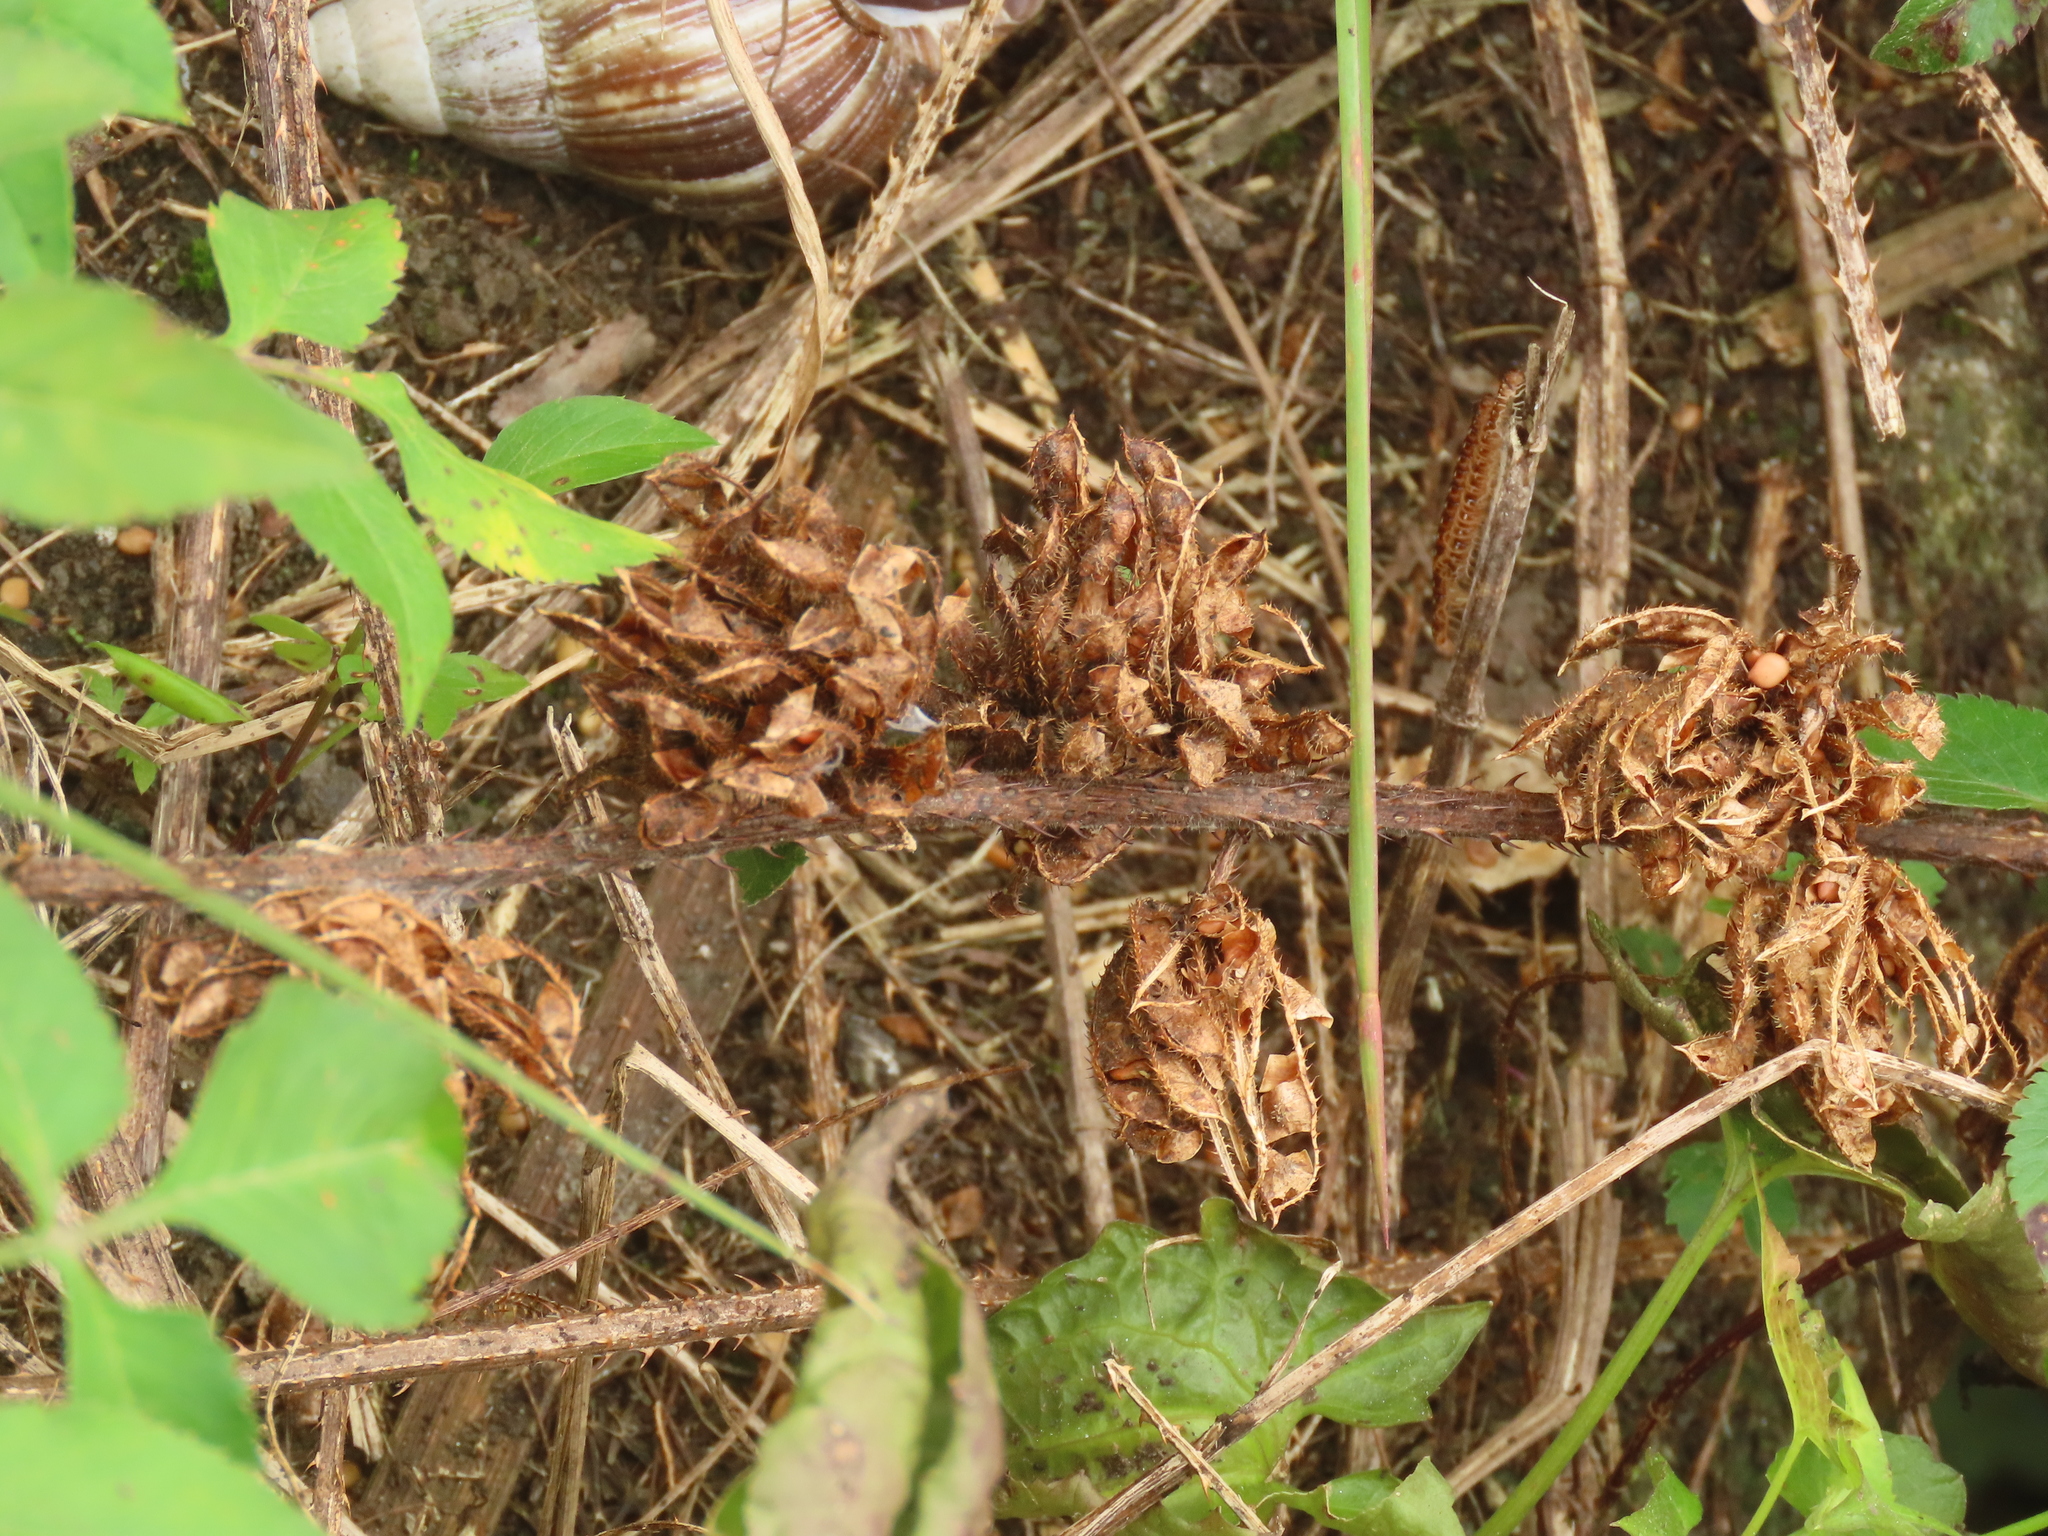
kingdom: Plantae
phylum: Tracheophyta
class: Magnoliopsida
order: Fabales
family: Fabaceae
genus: Mimosa
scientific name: Mimosa diplotricha
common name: Giant sensitive-plant
